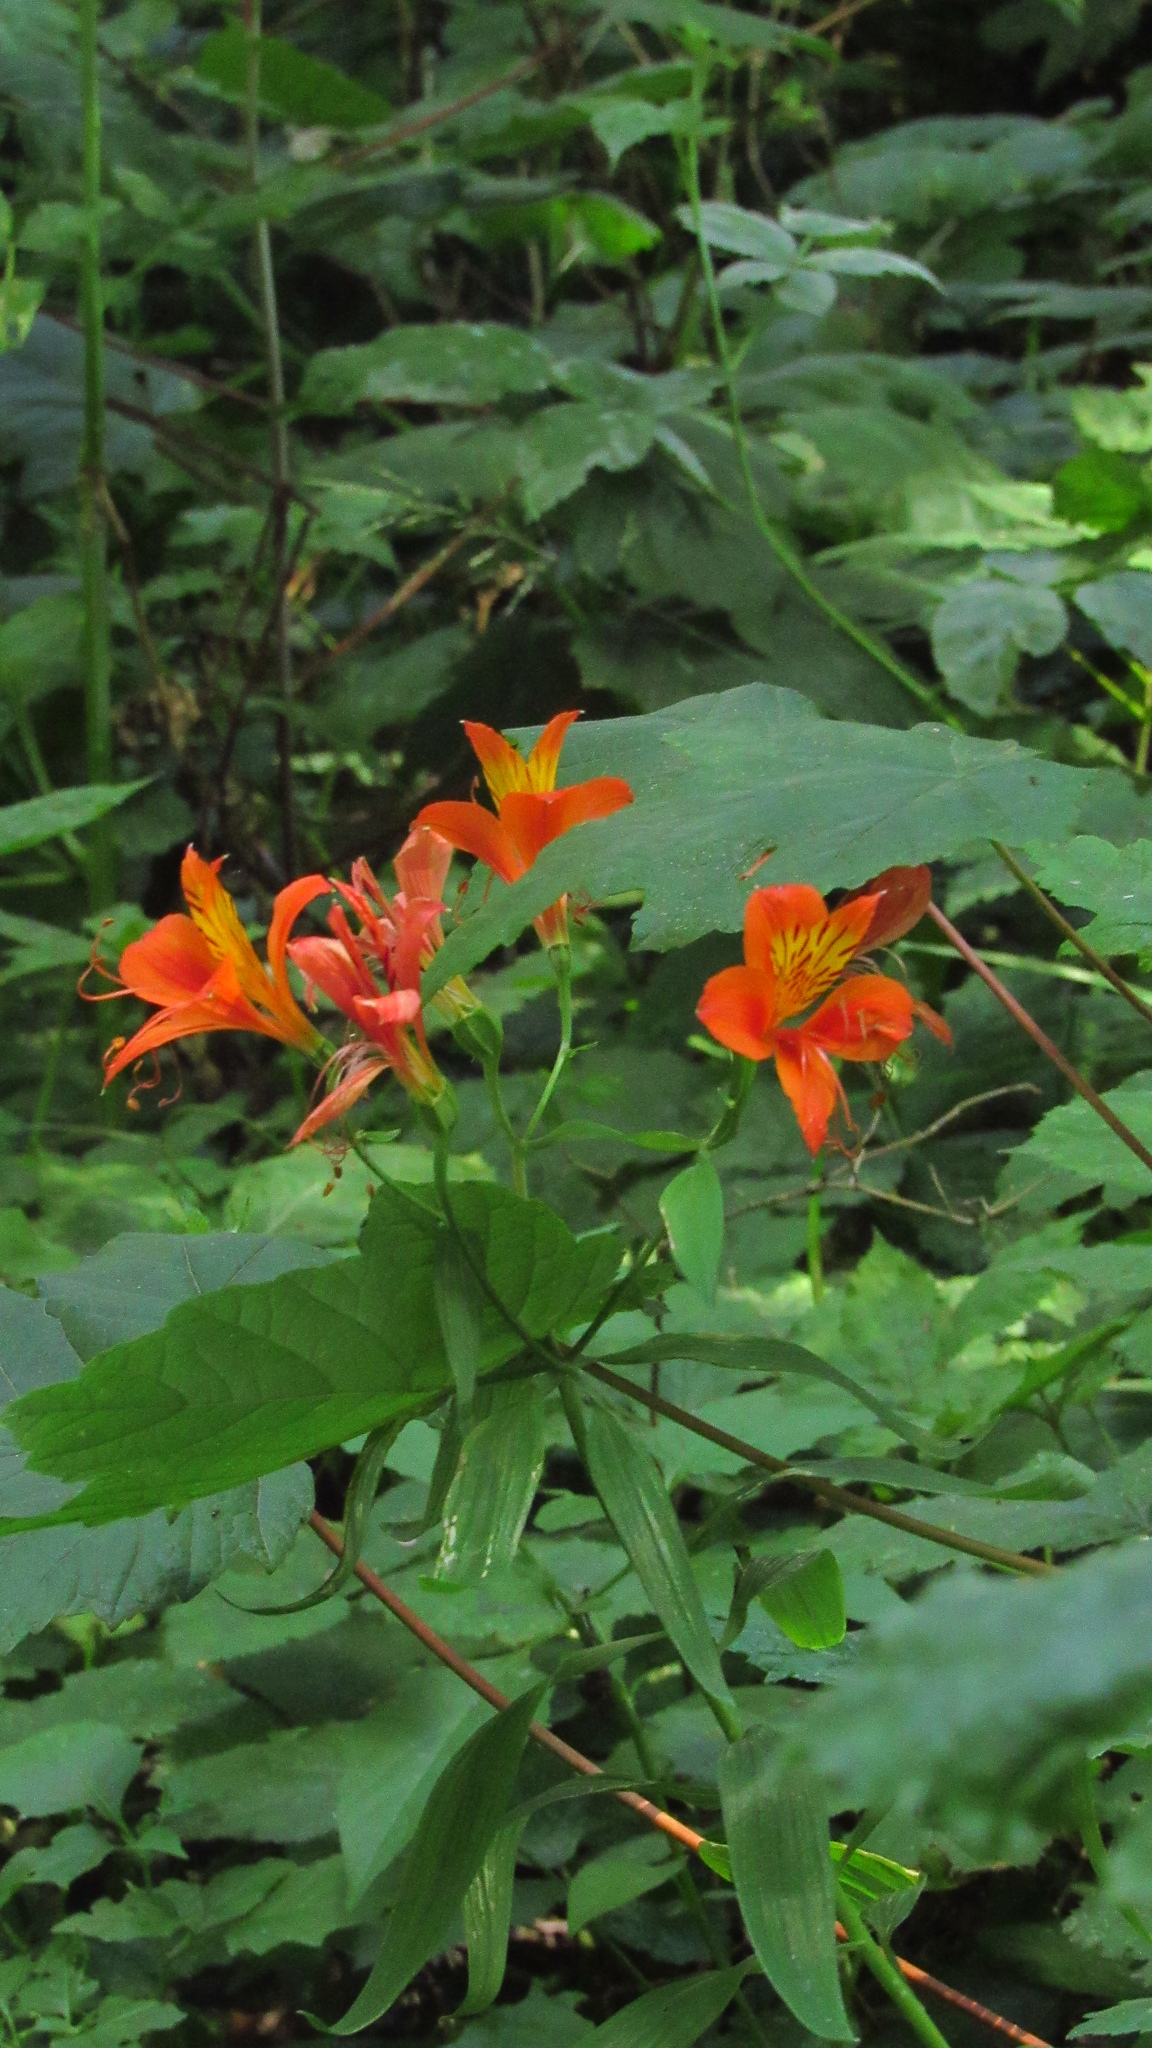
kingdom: Plantae
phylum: Tracheophyta
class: Liliopsida
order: Liliales
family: Alstroemeriaceae
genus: Alstroemeria
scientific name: Alstroemeria aurea
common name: Peruvian lily
